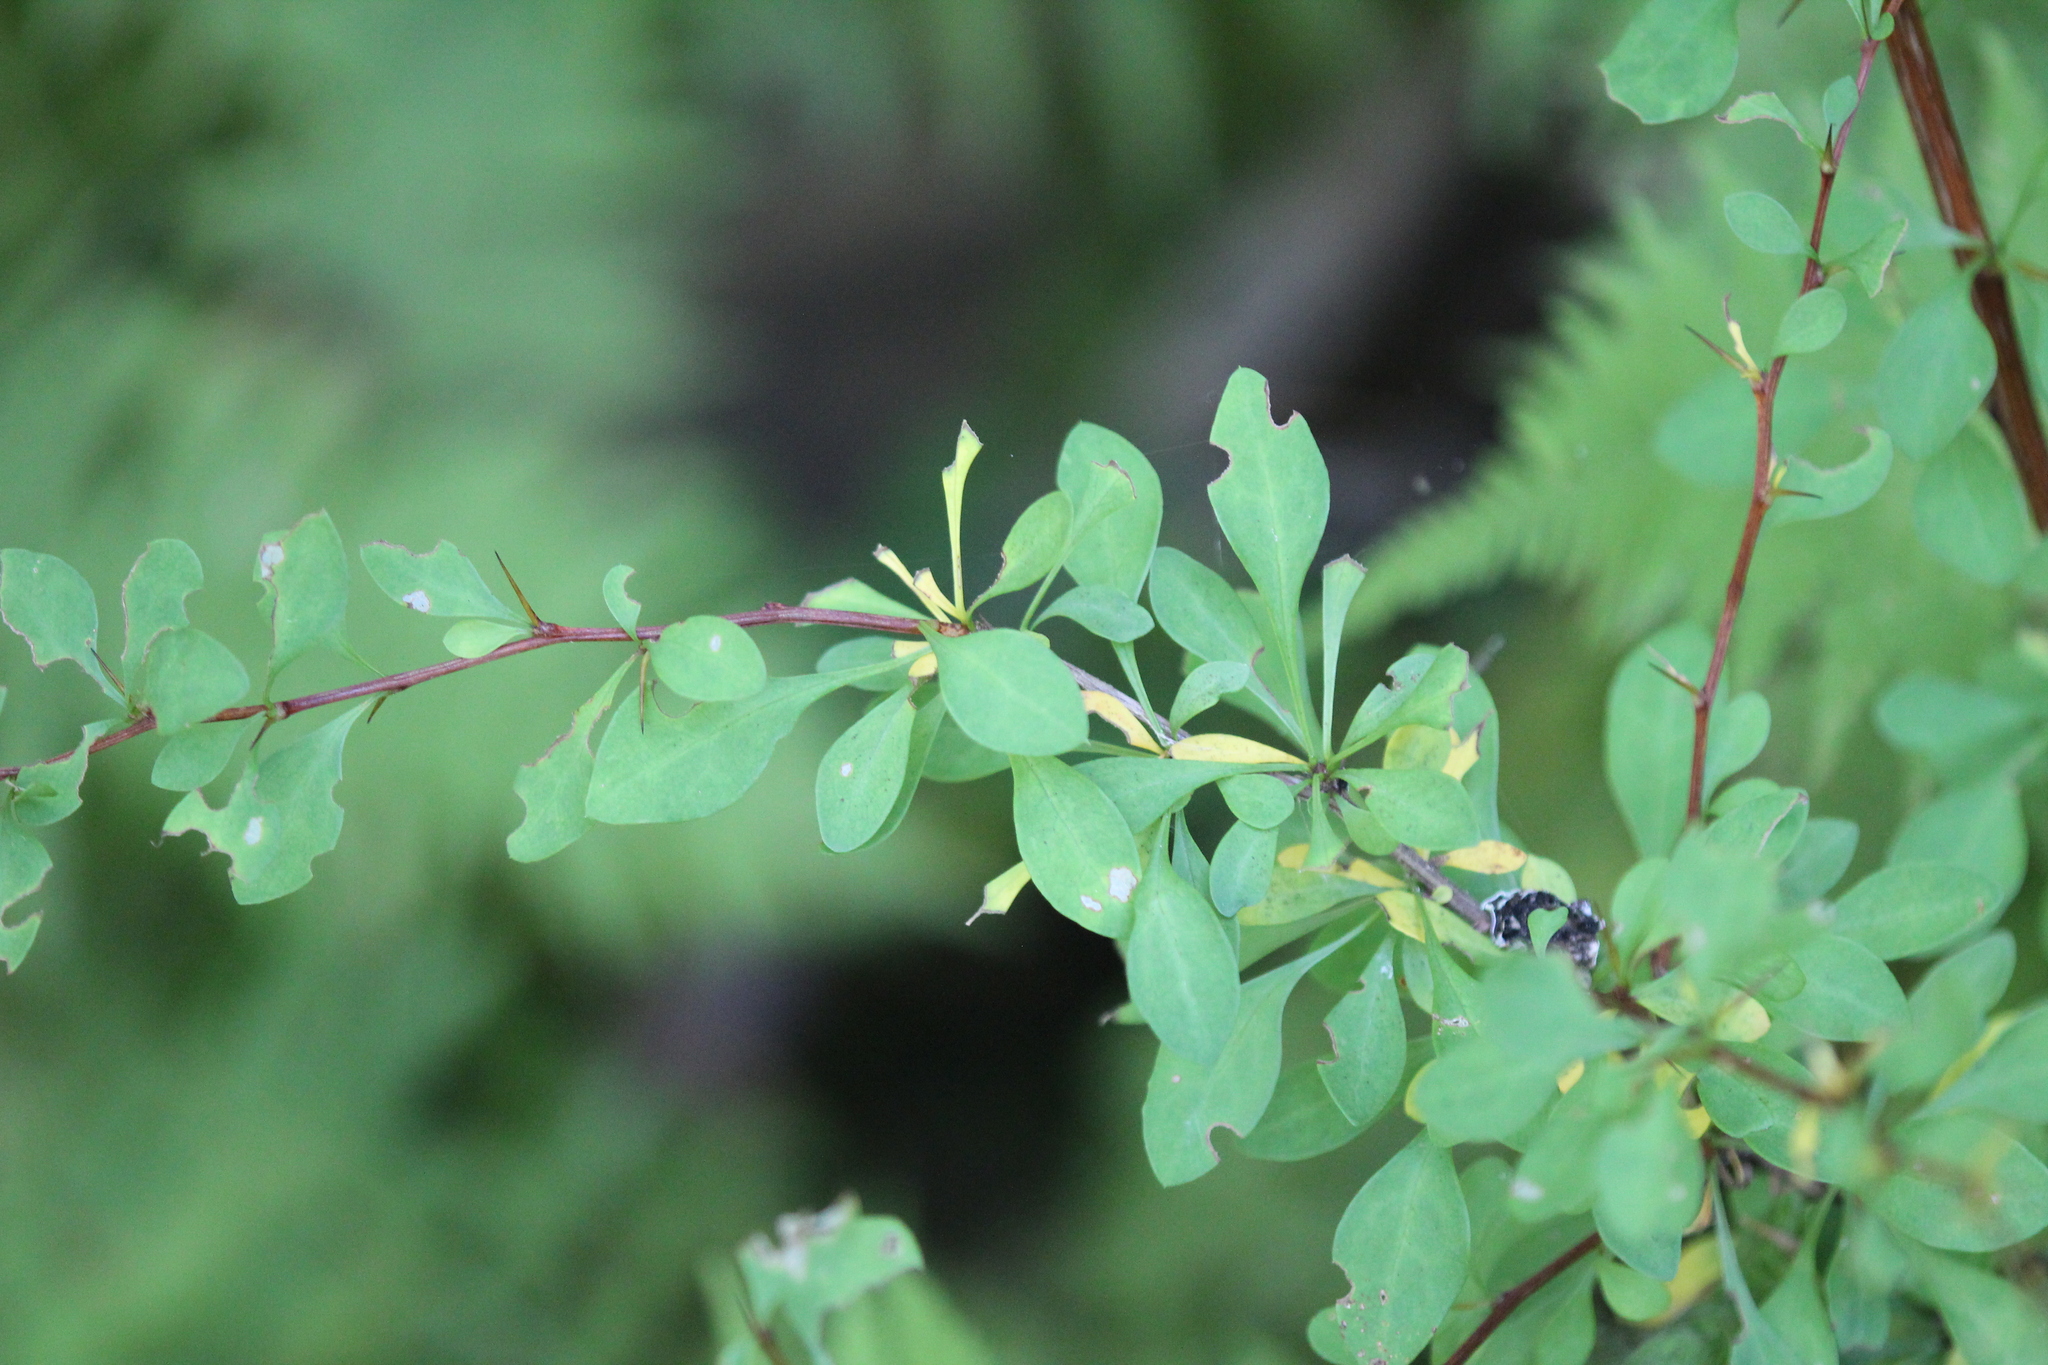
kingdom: Plantae
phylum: Tracheophyta
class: Magnoliopsida
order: Ranunculales
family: Berberidaceae
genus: Berberis
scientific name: Berberis thunbergii
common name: Japanese barberry
